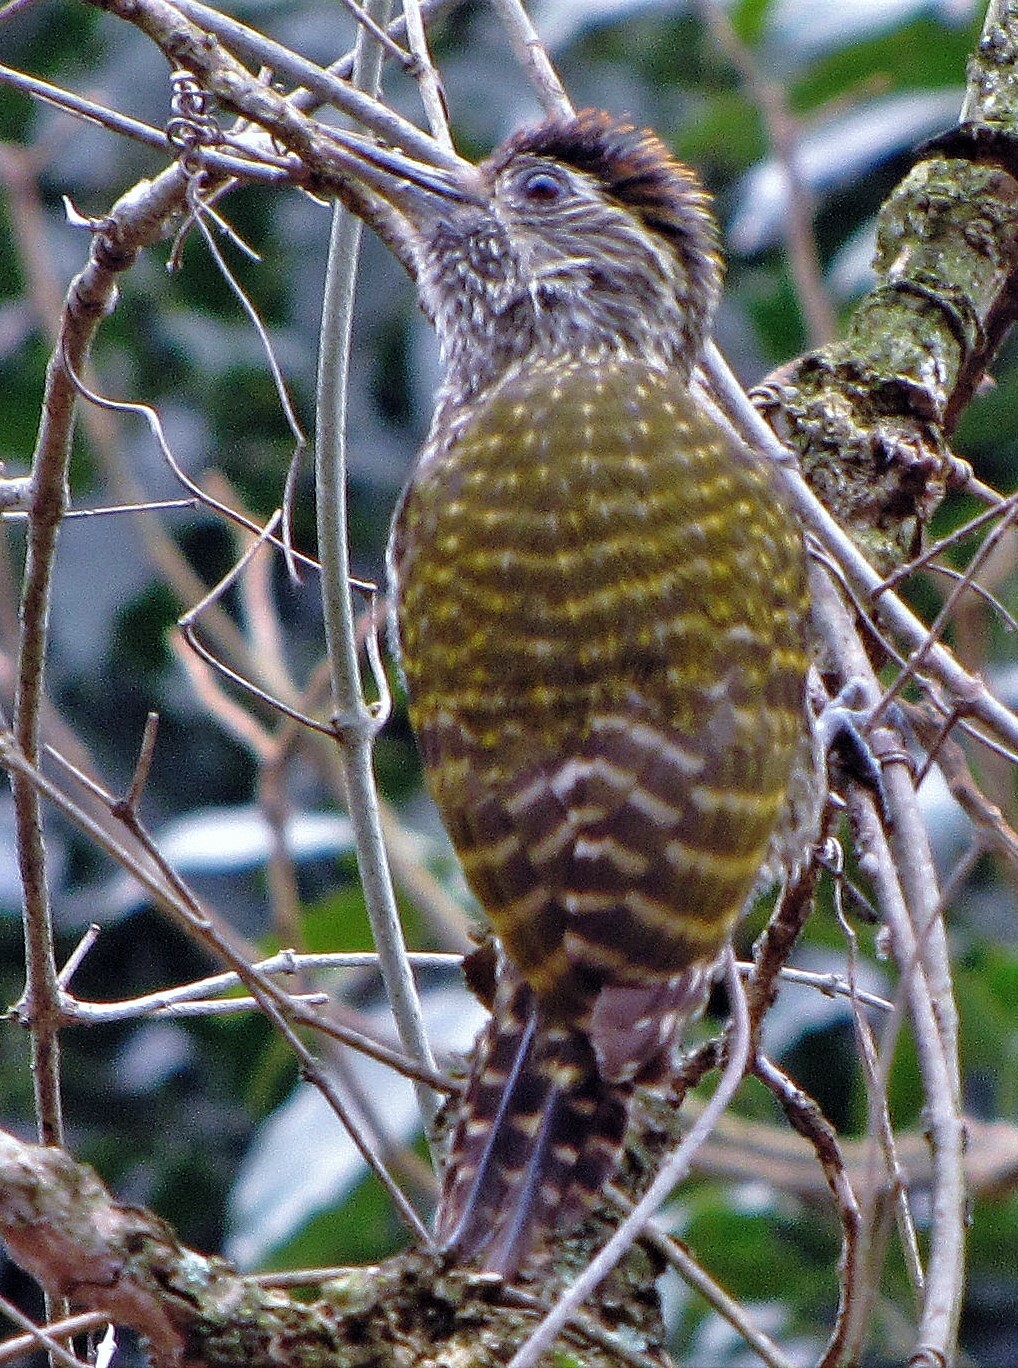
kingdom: Animalia
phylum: Chordata
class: Aves
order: Piciformes
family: Picidae
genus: Veniliornis
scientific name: Veniliornis spilogaster
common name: White-spotted woodpecker
